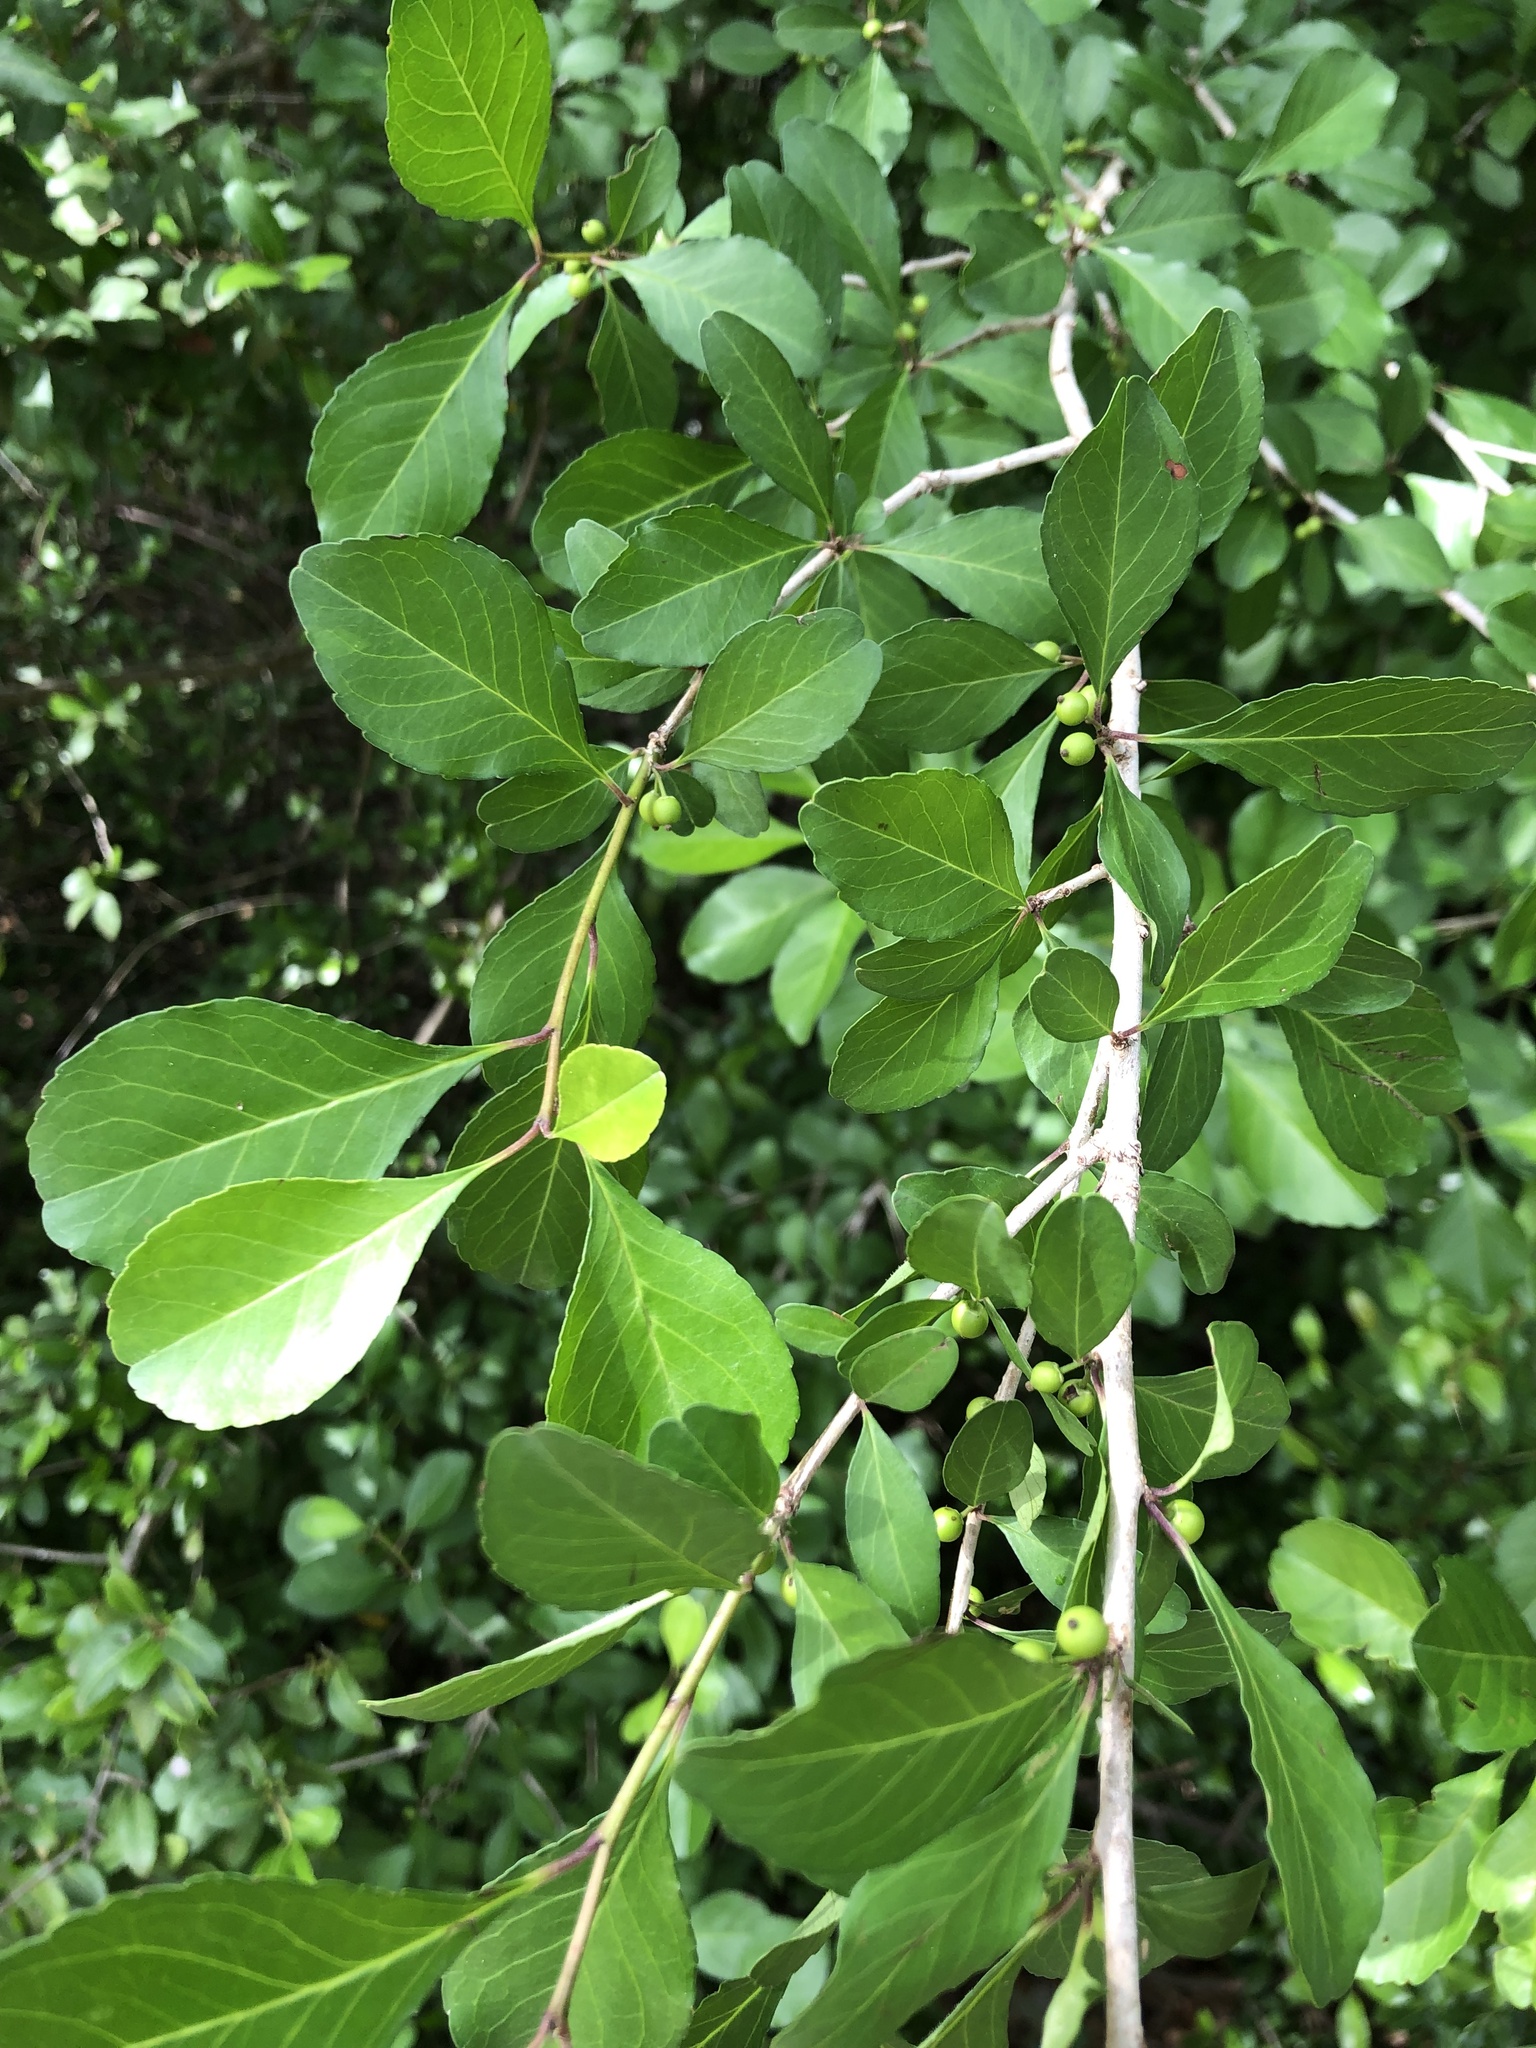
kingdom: Plantae
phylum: Tracheophyta
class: Magnoliopsida
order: Aquifoliales
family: Aquifoliaceae
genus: Ilex
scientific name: Ilex decidua
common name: Possum-haw
